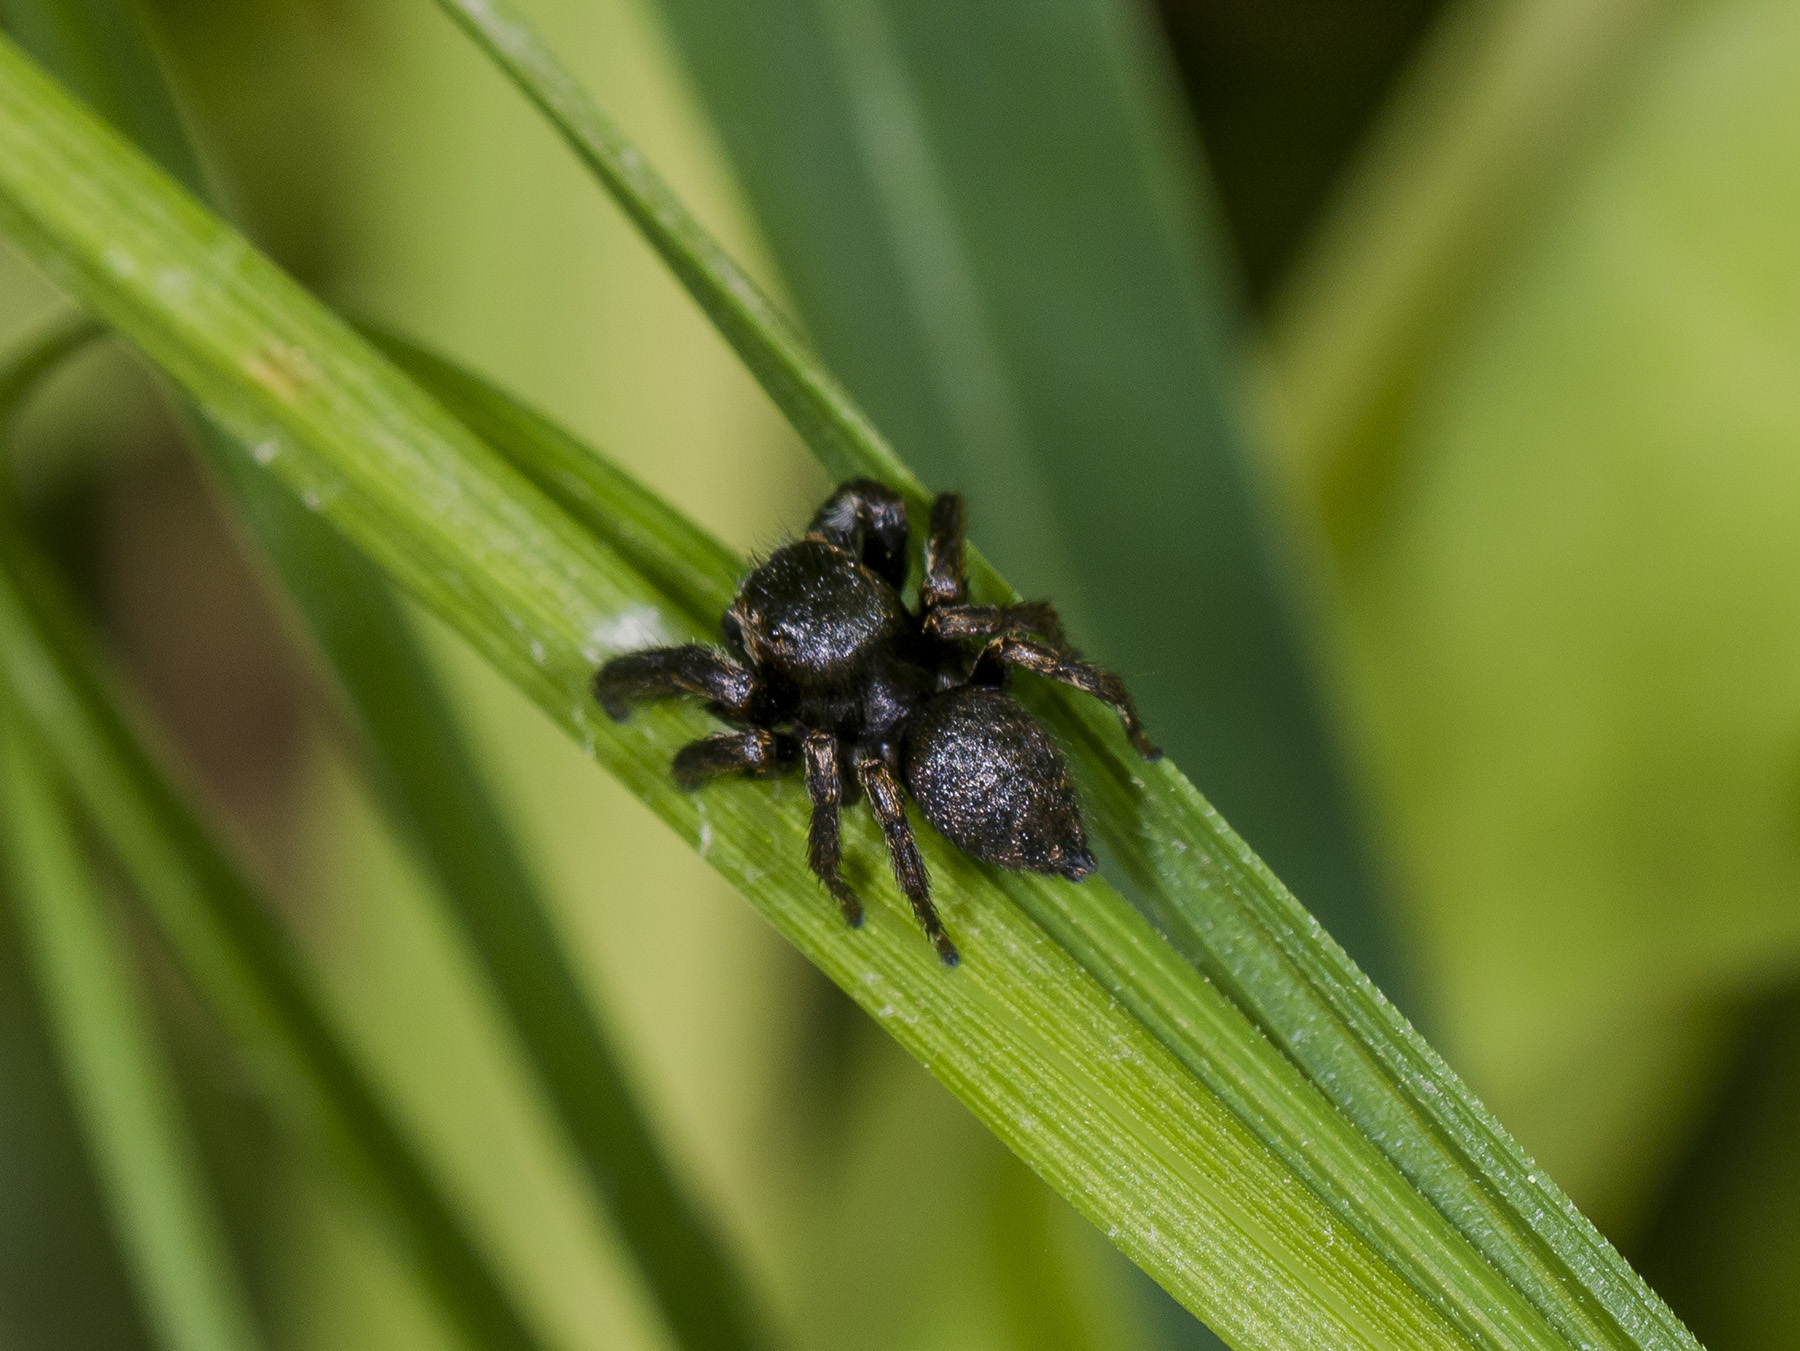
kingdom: Animalia
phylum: Arthropoda
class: Arachnida
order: Araneae
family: Salticidae
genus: Evarcha
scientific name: Evarcha arcuata
